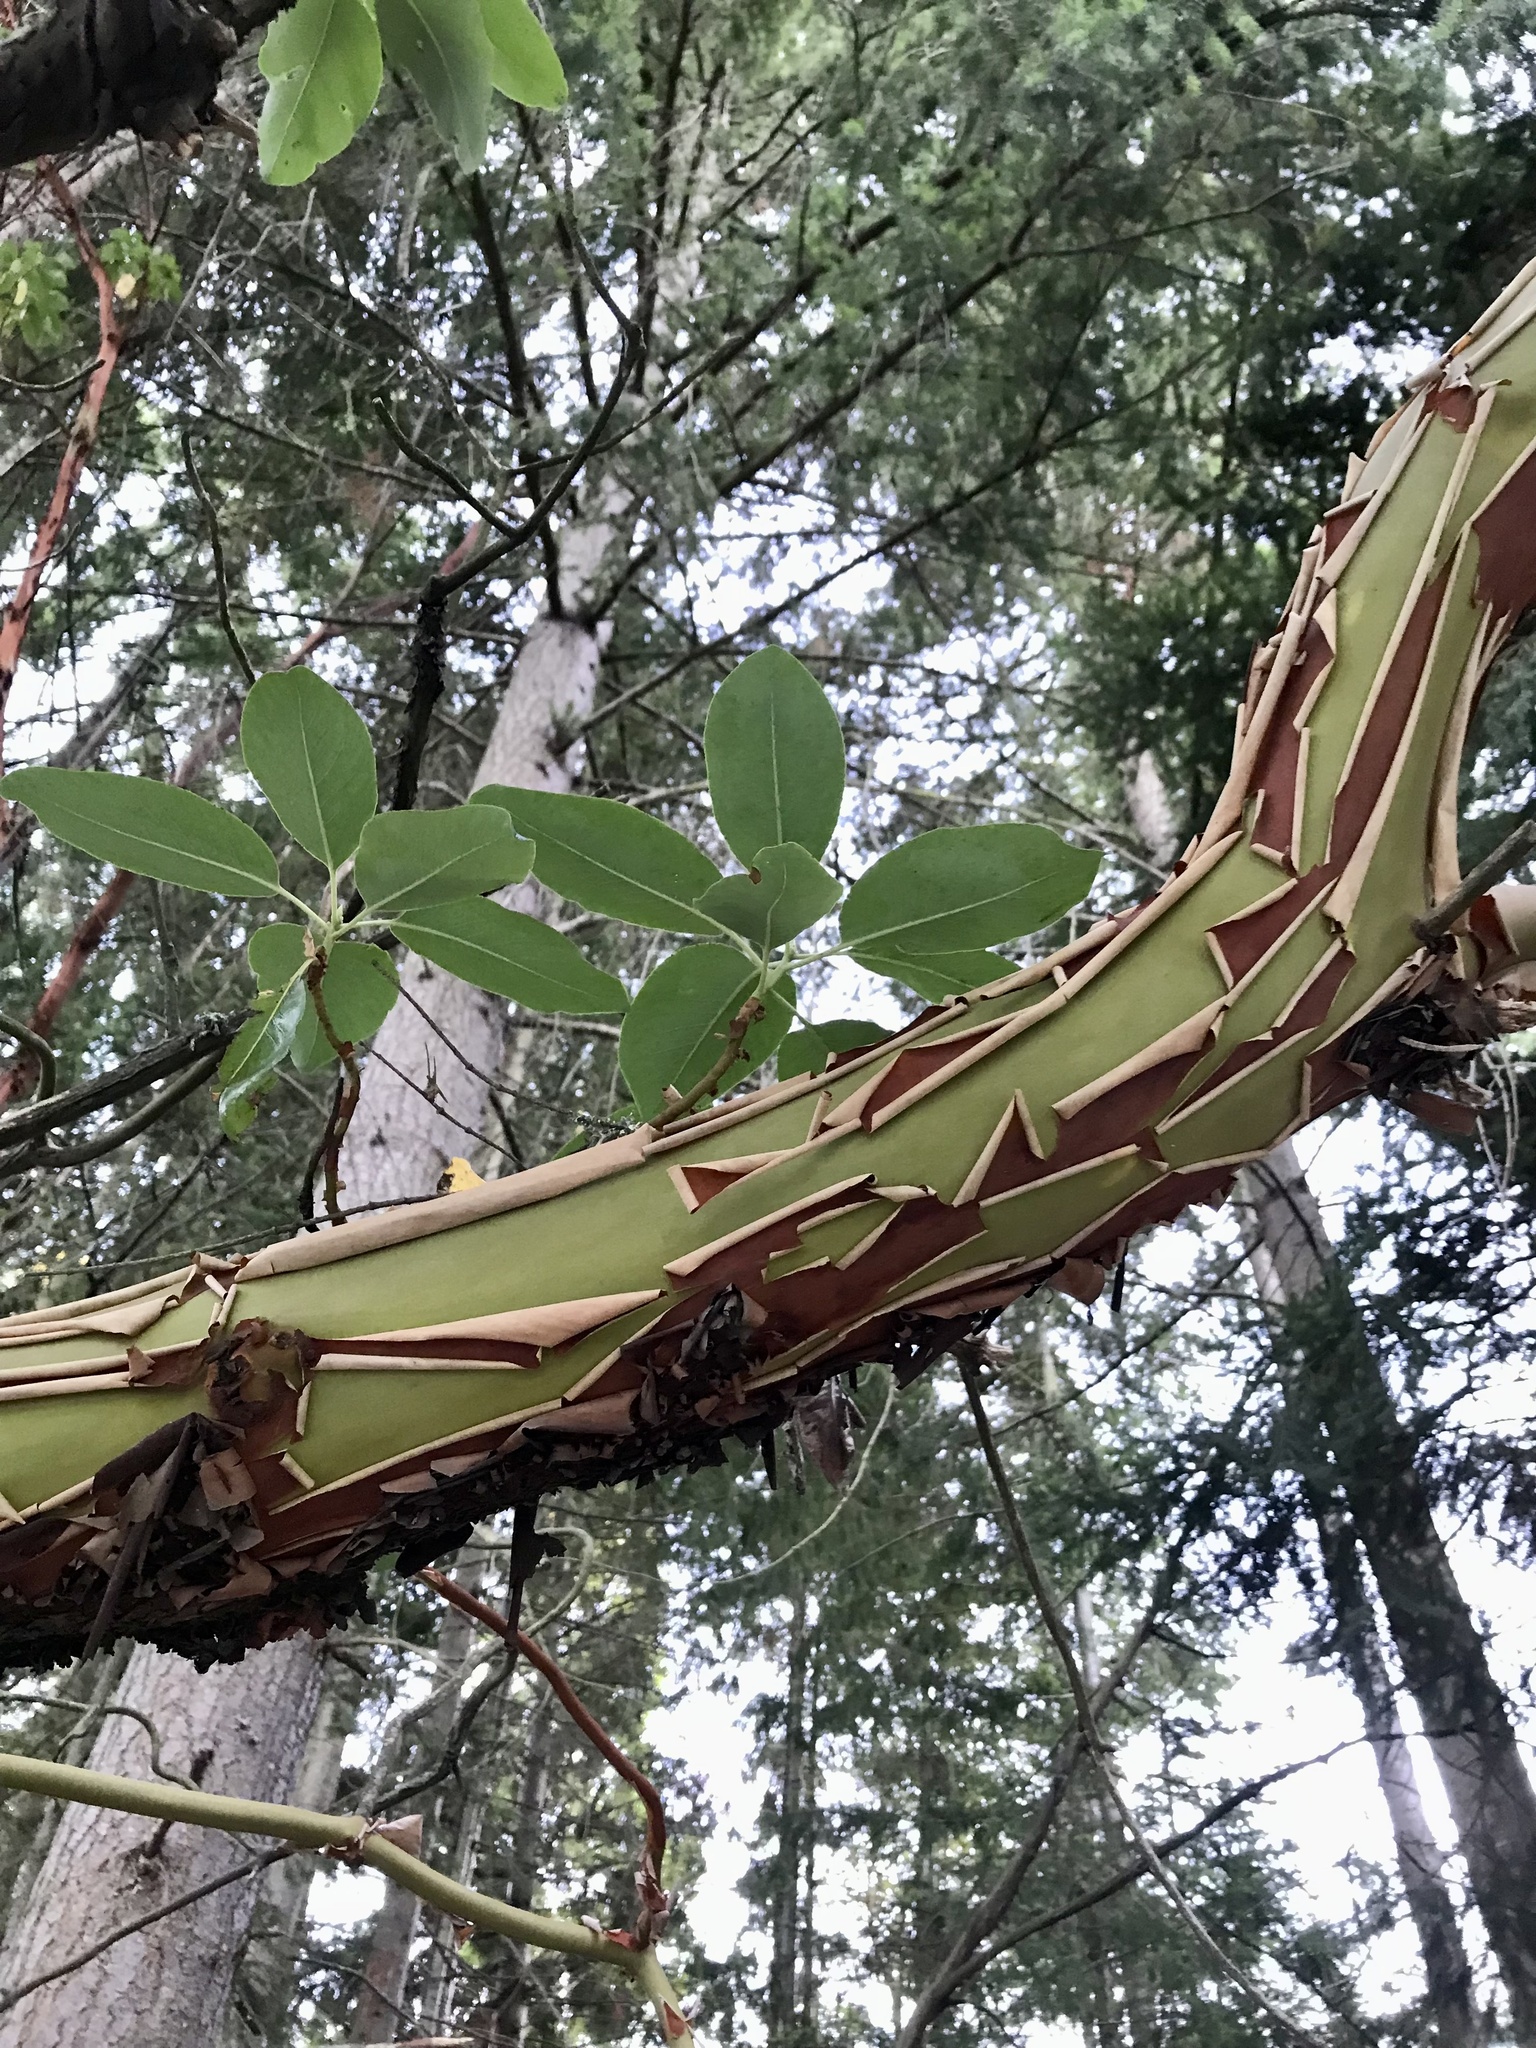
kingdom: Plantae
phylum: Tracheophyta
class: Magnoliopsida
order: Ericales
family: Ericaceae
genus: Arbutus
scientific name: Arbutus menziesii
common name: Pacific madrone
